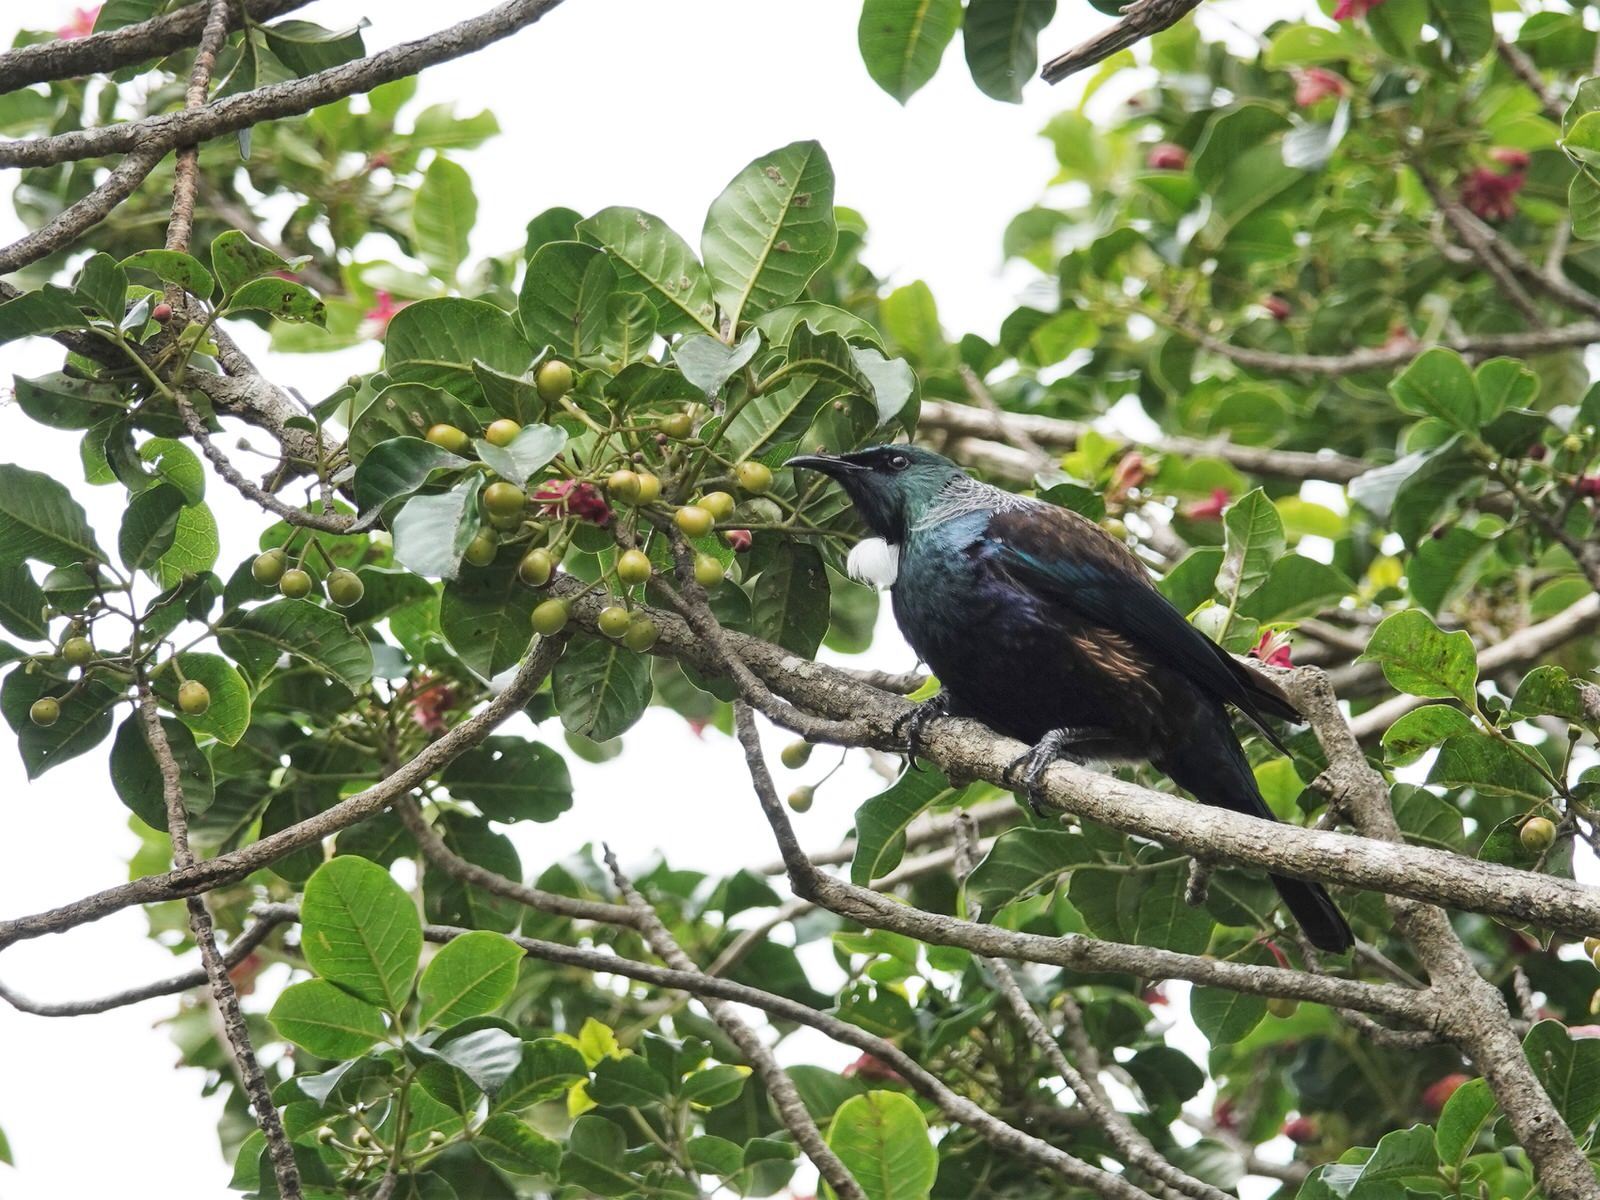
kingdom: Animalia
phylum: Chordata
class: Aves
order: Passeriformes
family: Meliphagidae
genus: Prosthemadera
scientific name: Prosthemadera novaeseelandiae
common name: Tui
